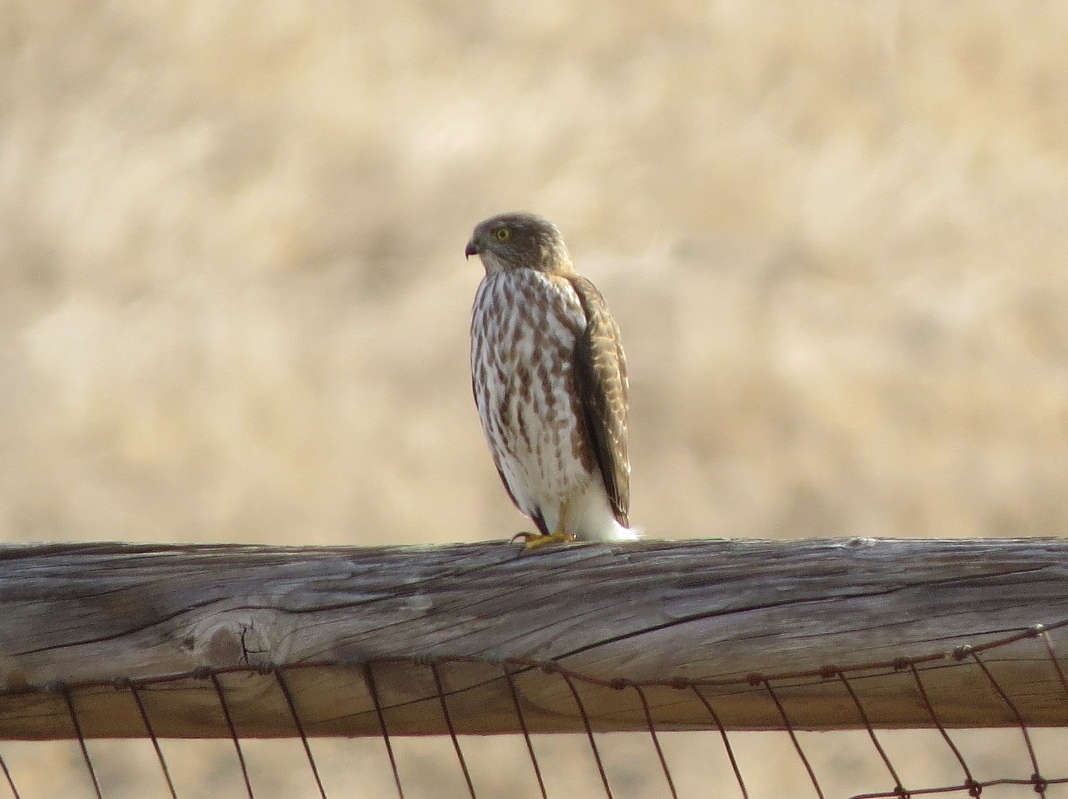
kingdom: Animalia
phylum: Chordata
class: Aves
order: Accipitriformes
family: Accipitridae
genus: Accipiter
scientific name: Accipiter striatus
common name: Sharp-shinned hawk
